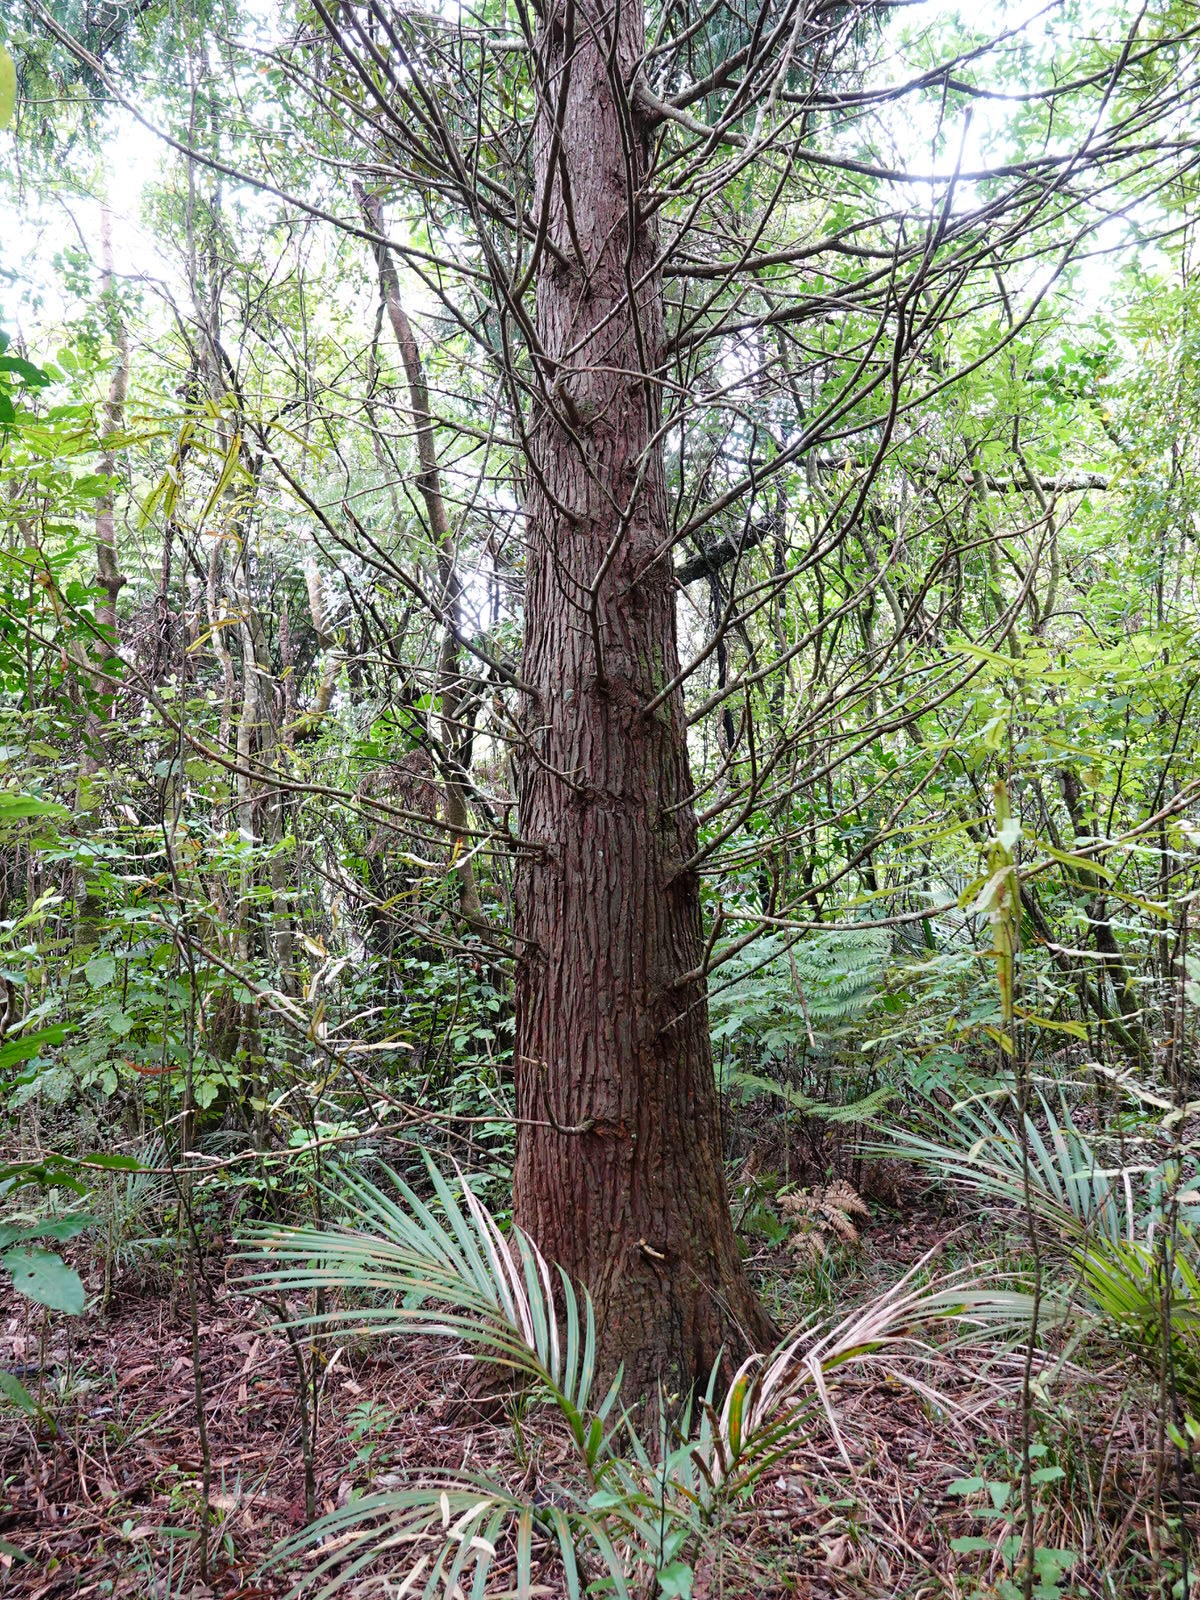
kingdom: Plantae
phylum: Tracheophyta
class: Pinopsida
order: Pinales
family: Cupressaceae
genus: Chamaecyparis
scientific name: Chamaecyparis lawsoniana
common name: Lawson's cypress
